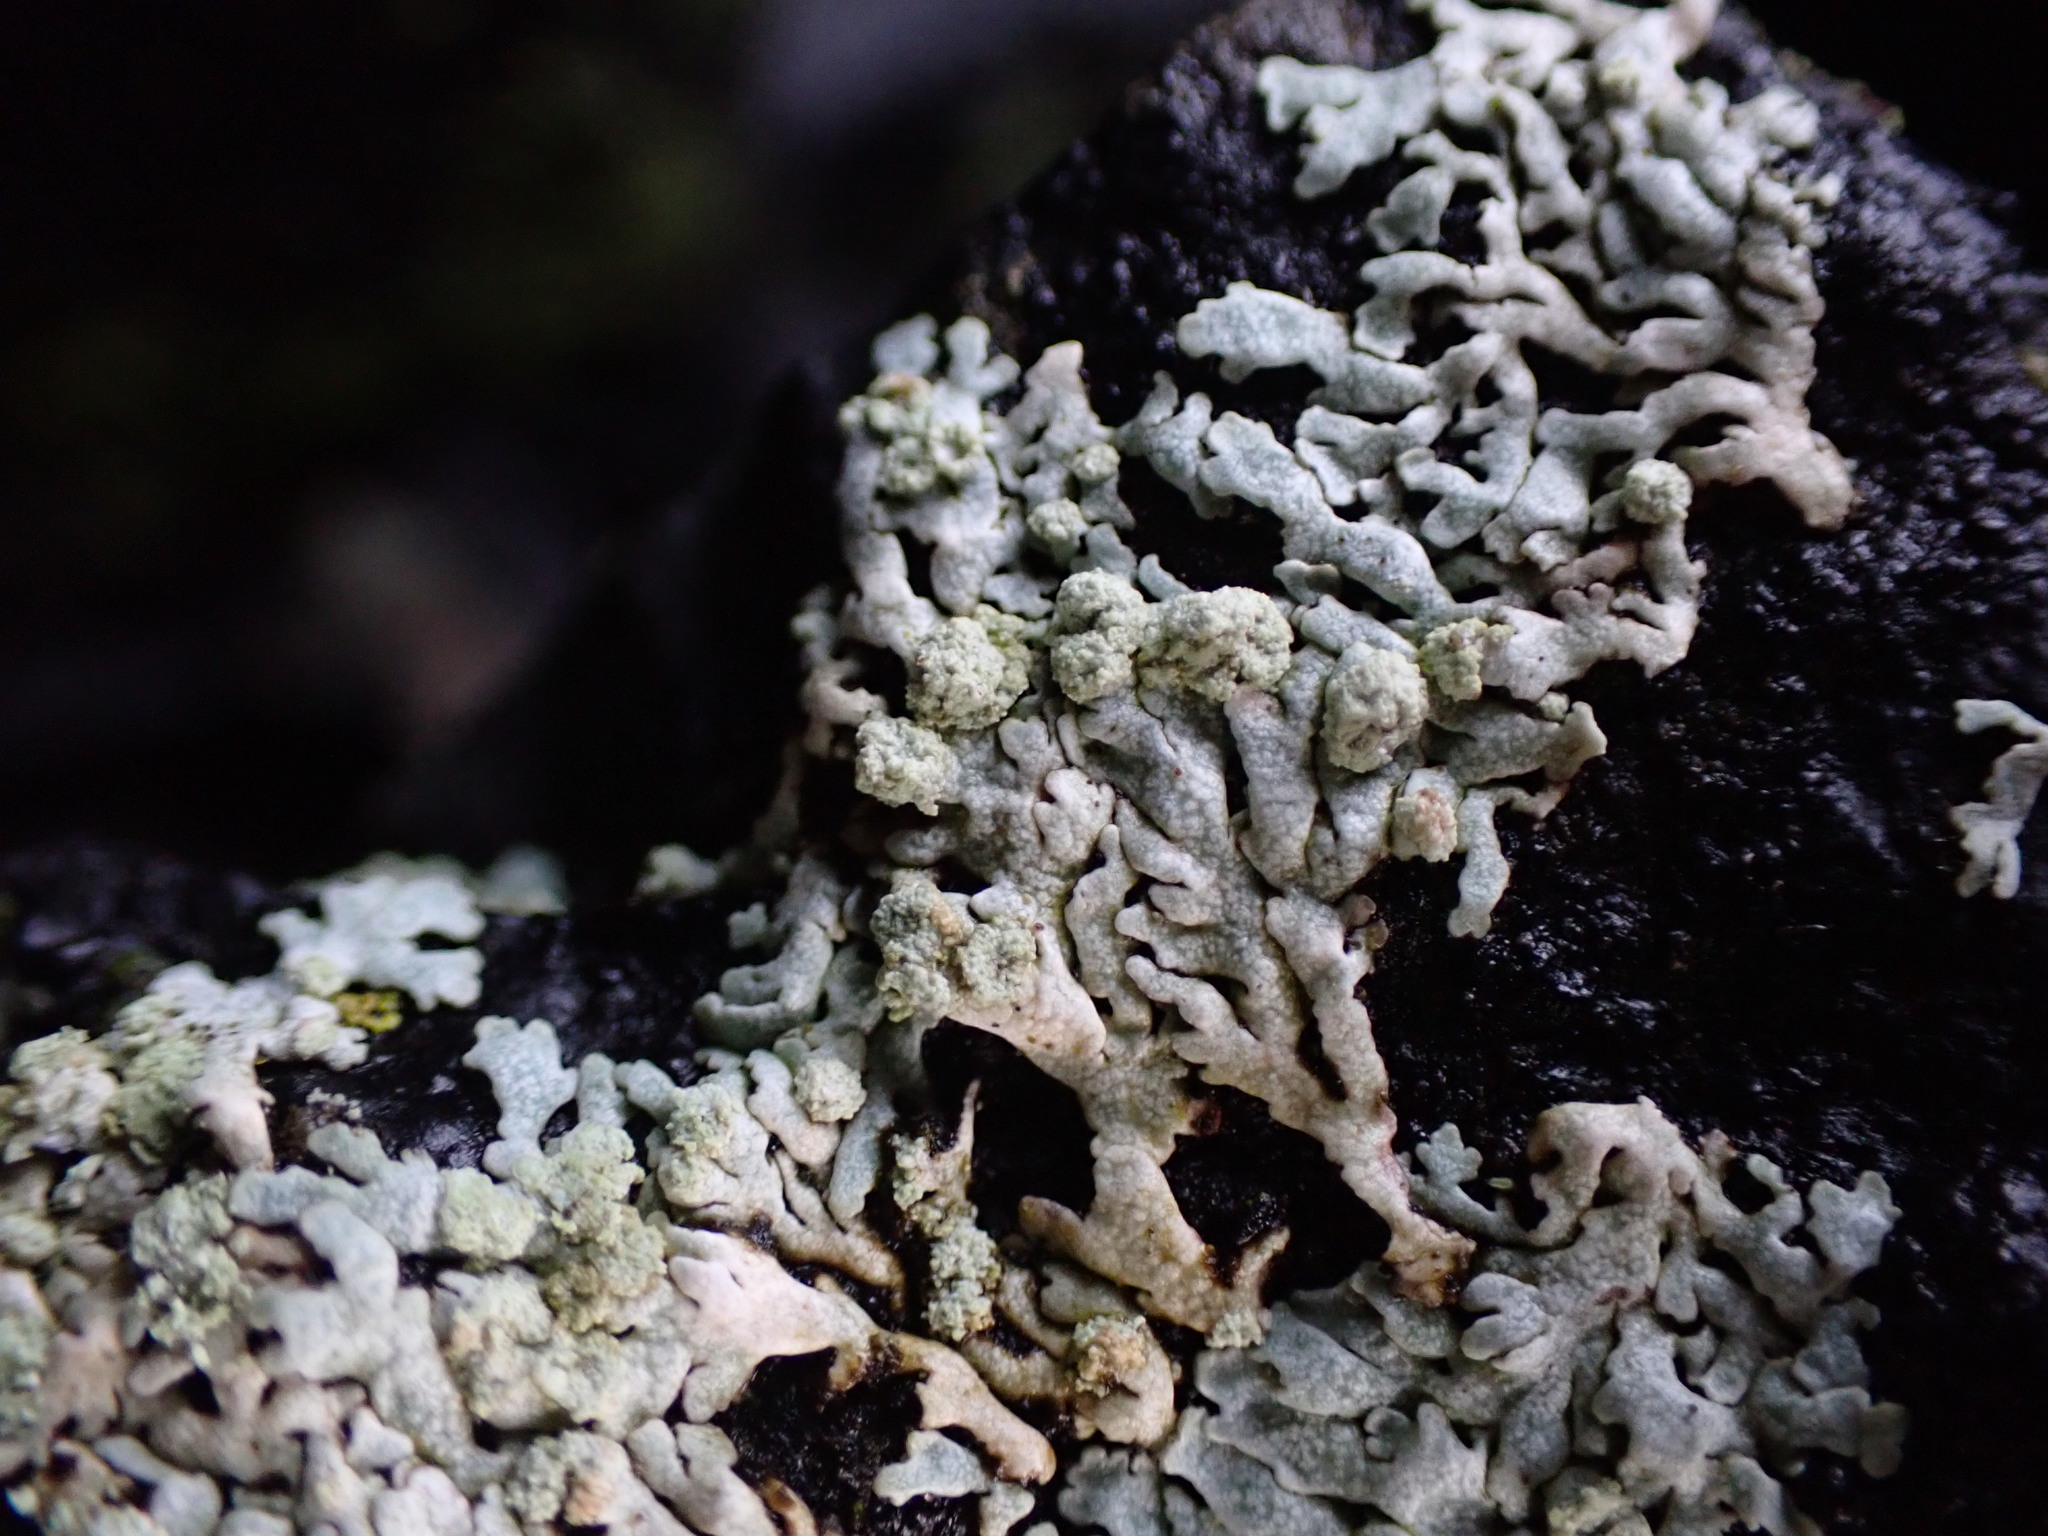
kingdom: Fungi
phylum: Ascomycota
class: Lecanoromycetes
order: Caliciales
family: Physciaceae
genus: Physcia
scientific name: Physcia caesia
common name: Blue-gray rosette lichen
